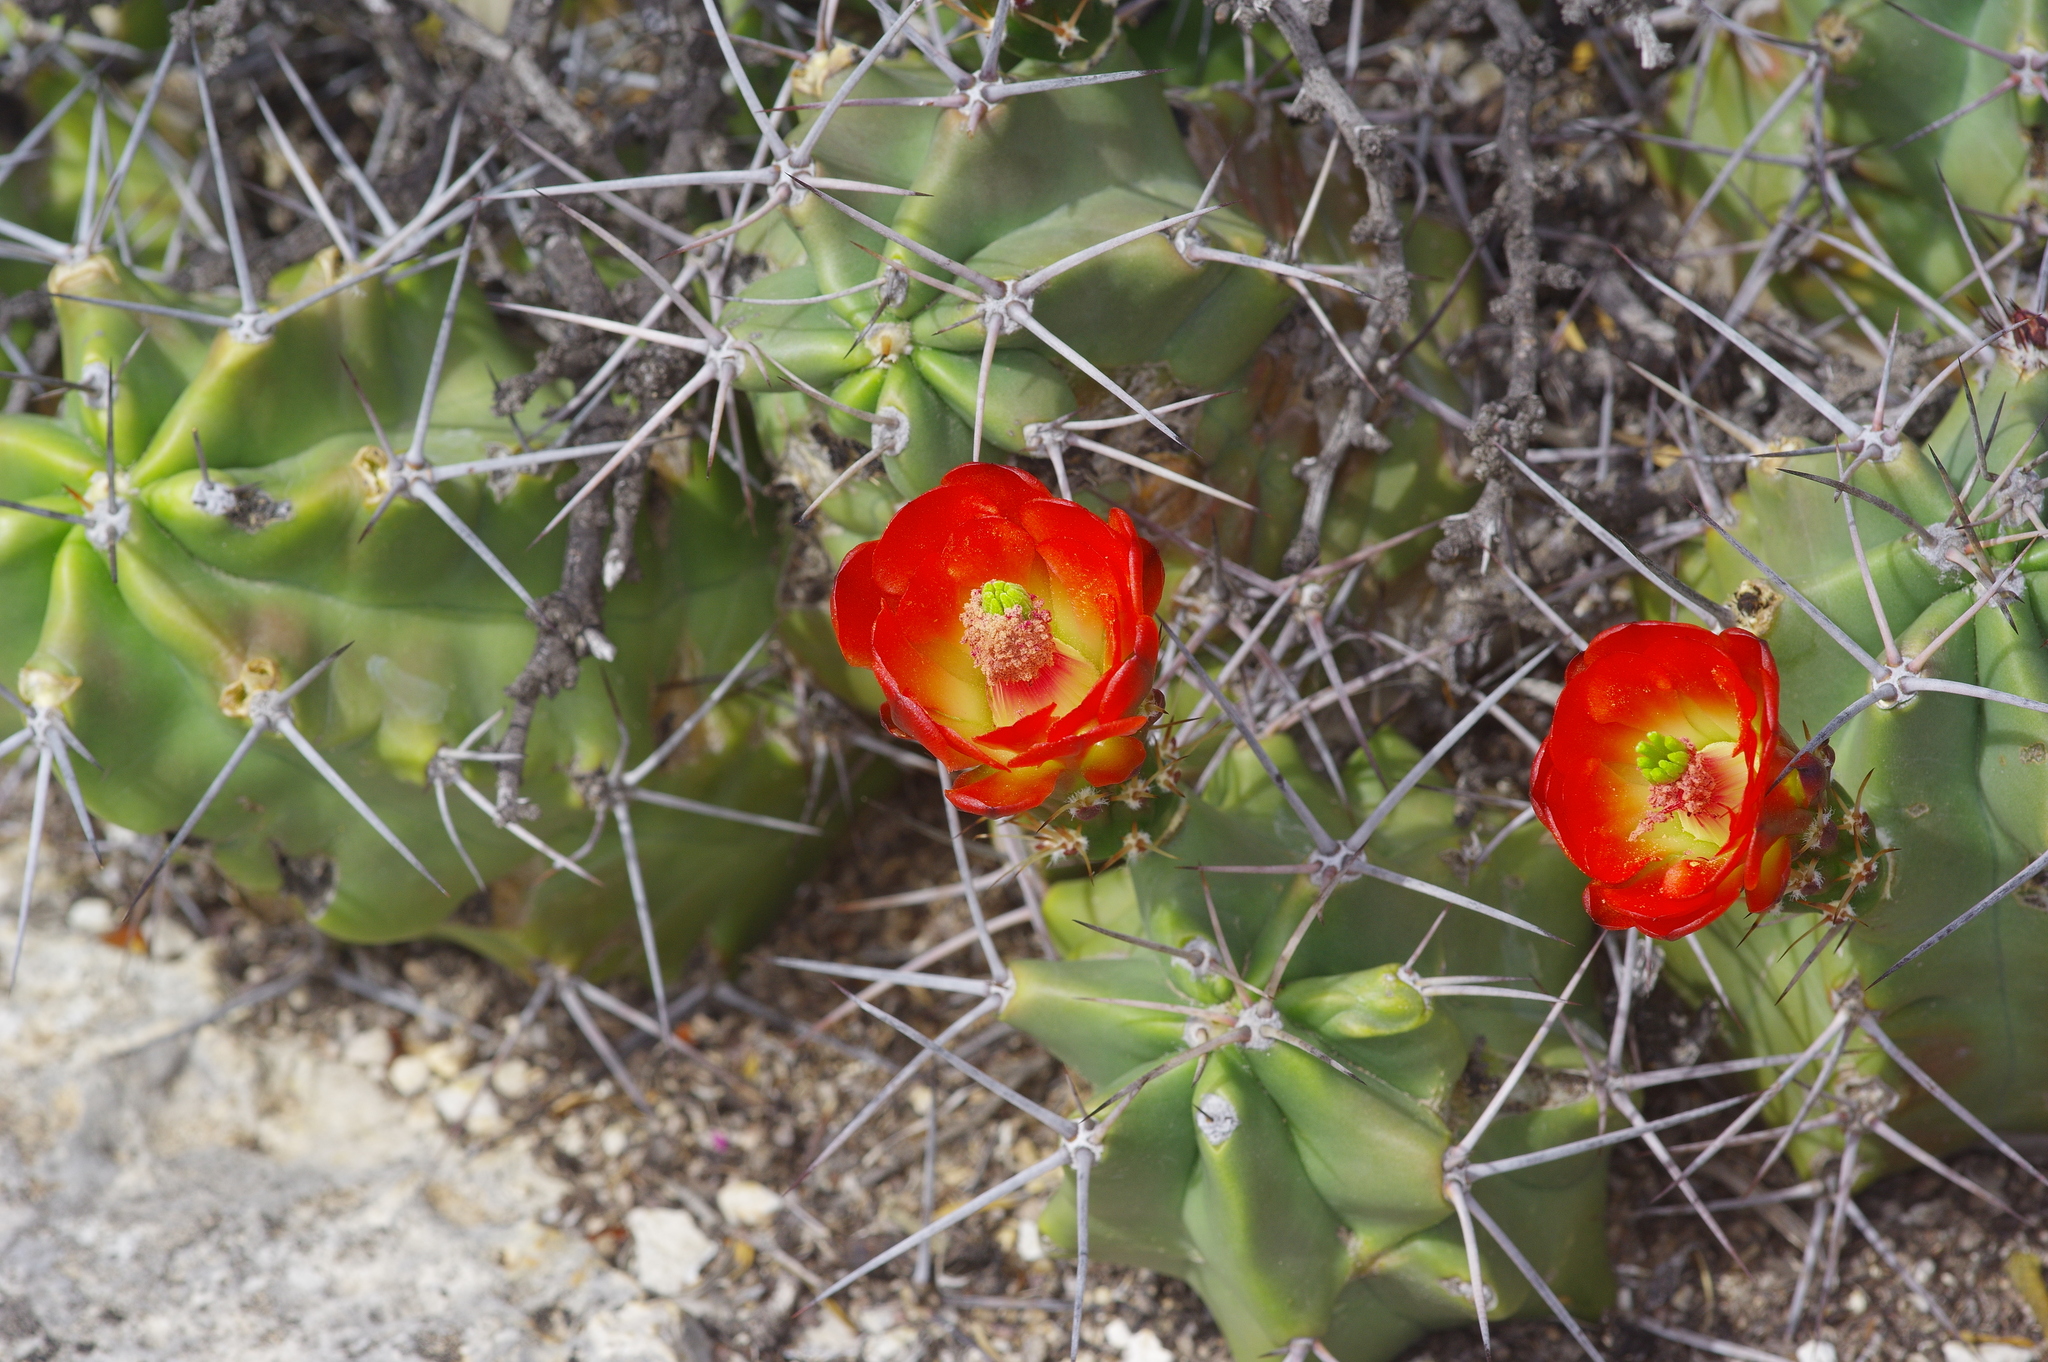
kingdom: Plantae
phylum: Tracheophyta
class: Magnoliopsida
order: Caryophyllales
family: Cactaceae
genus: Echinocereus
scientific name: Echinocereus coccineus
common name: Scarlet hedgehog cactus
